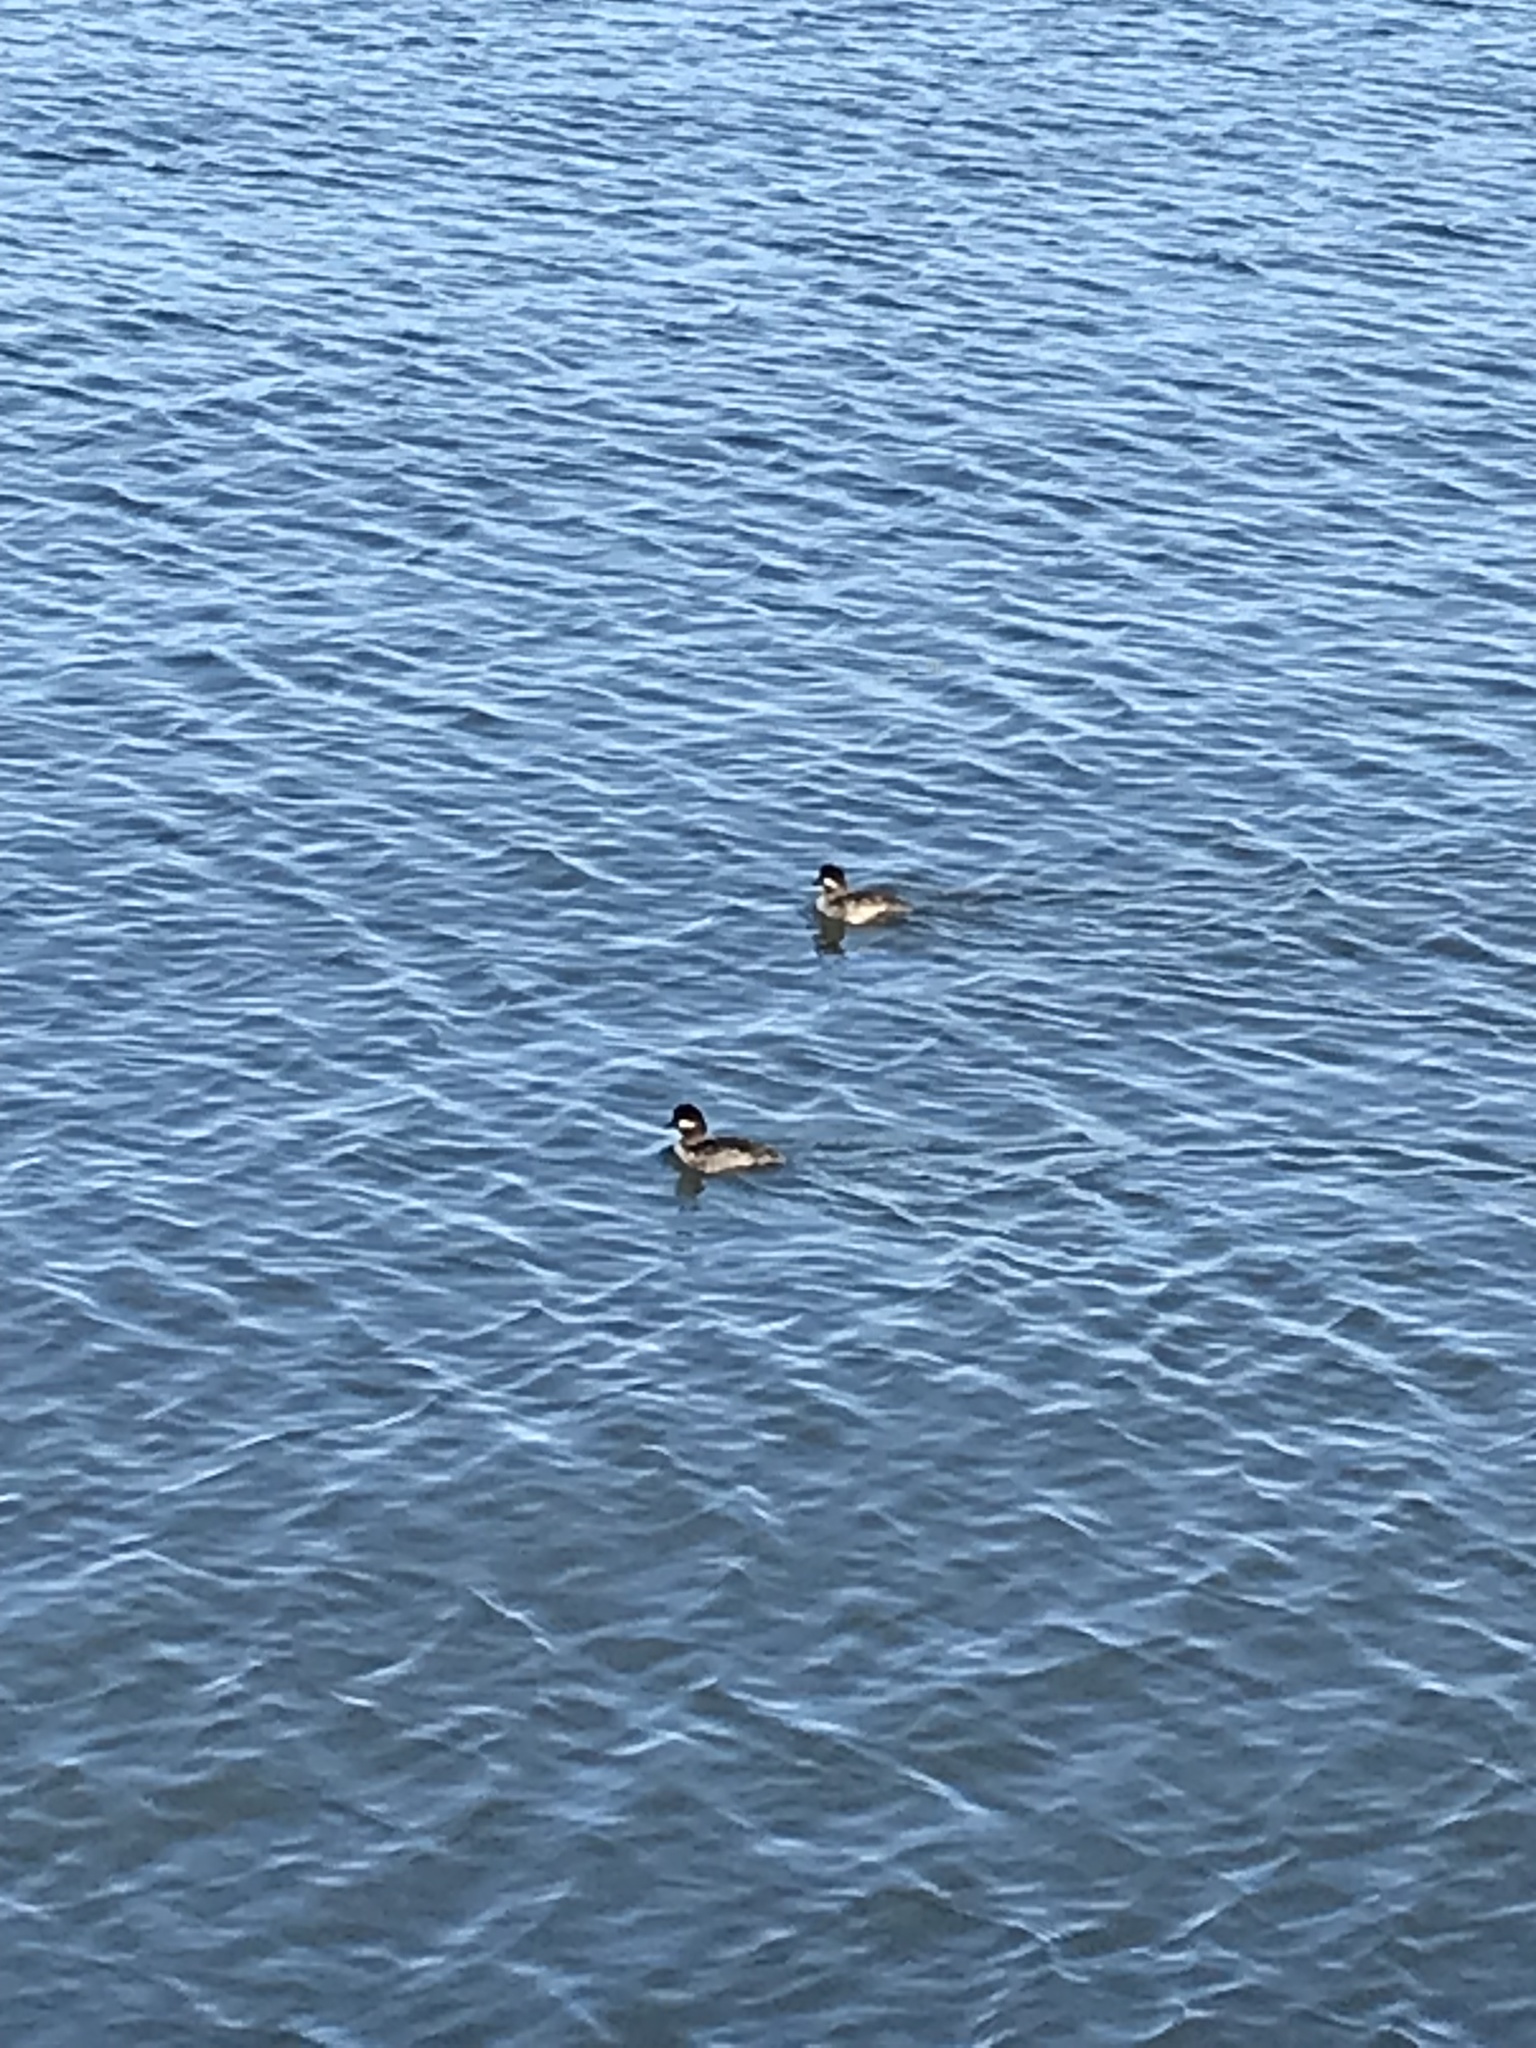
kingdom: Animalia
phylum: Chordata
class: Aves
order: Anseriformes
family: Anatidae
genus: Bucephala
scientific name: Bucephala albeola
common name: Bufflehead
